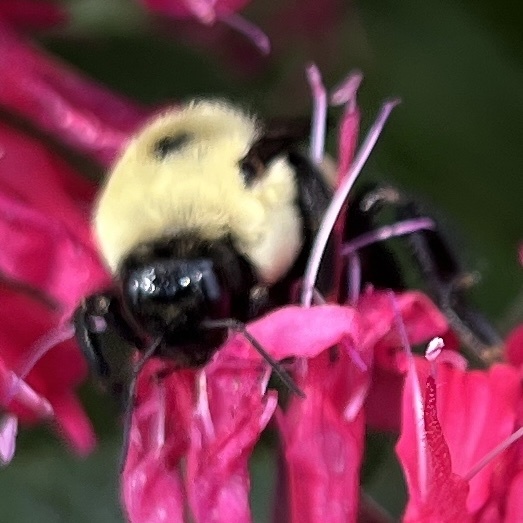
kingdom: Animalia
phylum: Arthropoda
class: Insecta
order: Hymenoptera
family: Apidae
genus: Bombus
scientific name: Bombus griseocollis
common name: Brown-belted bumble bee
